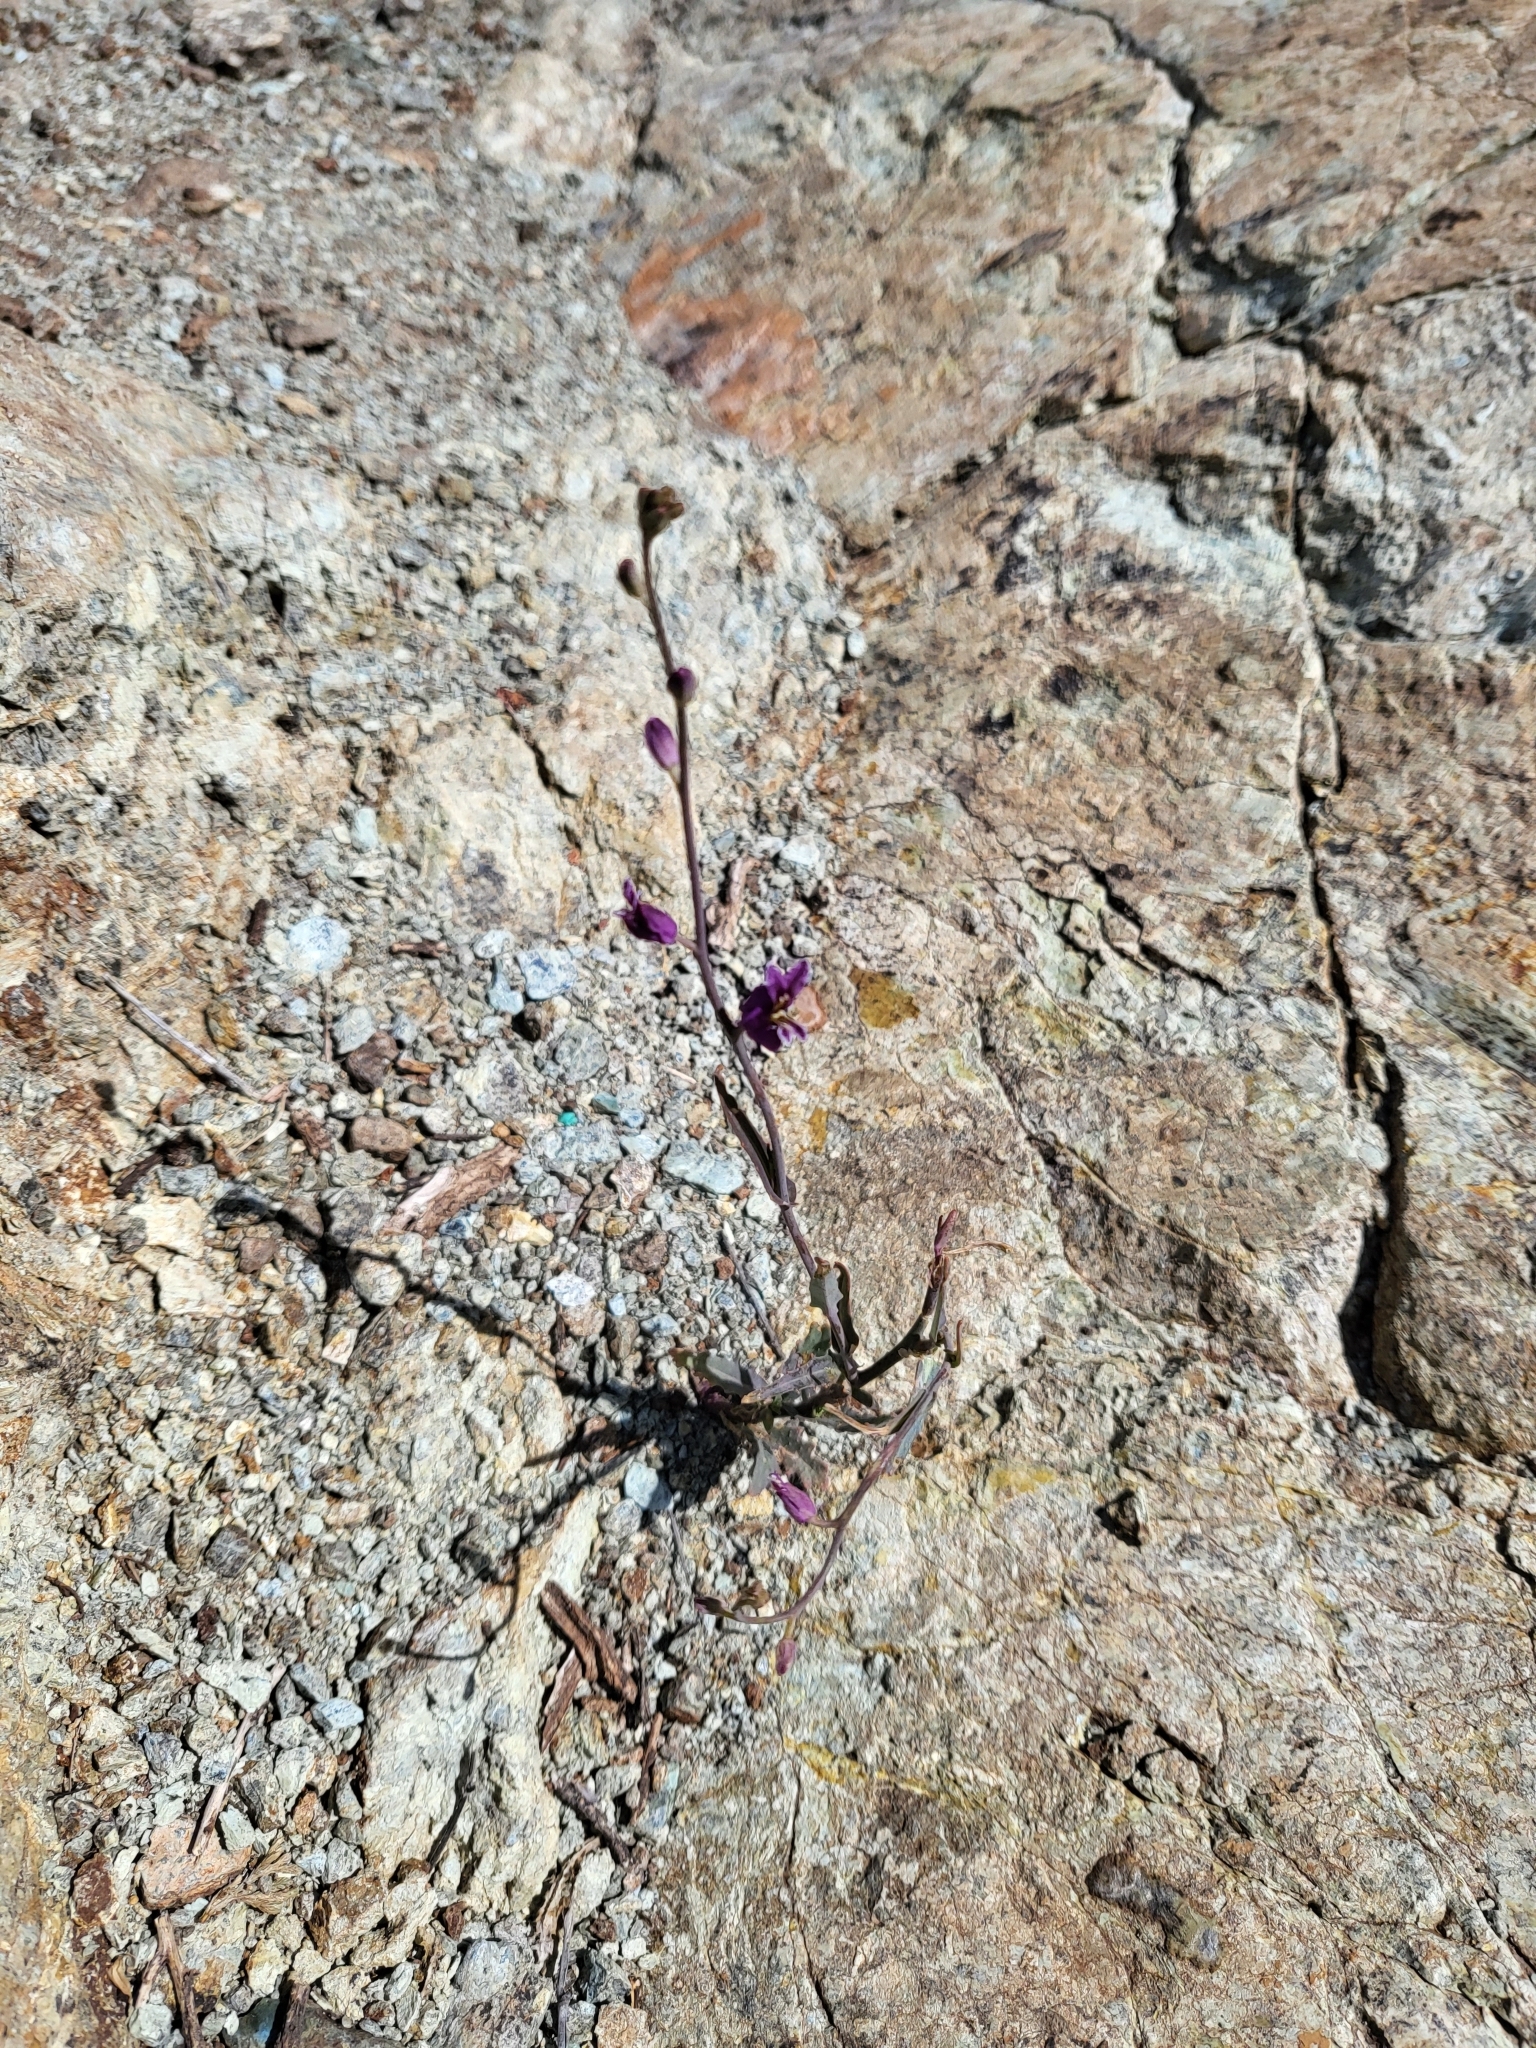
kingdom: Plantae
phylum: Tracheophyta
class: Magnoliopsida
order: Brassicales
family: Brassicaceae
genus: Streptanthus
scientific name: Streptanthus glandulosus
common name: Jewel-flower
